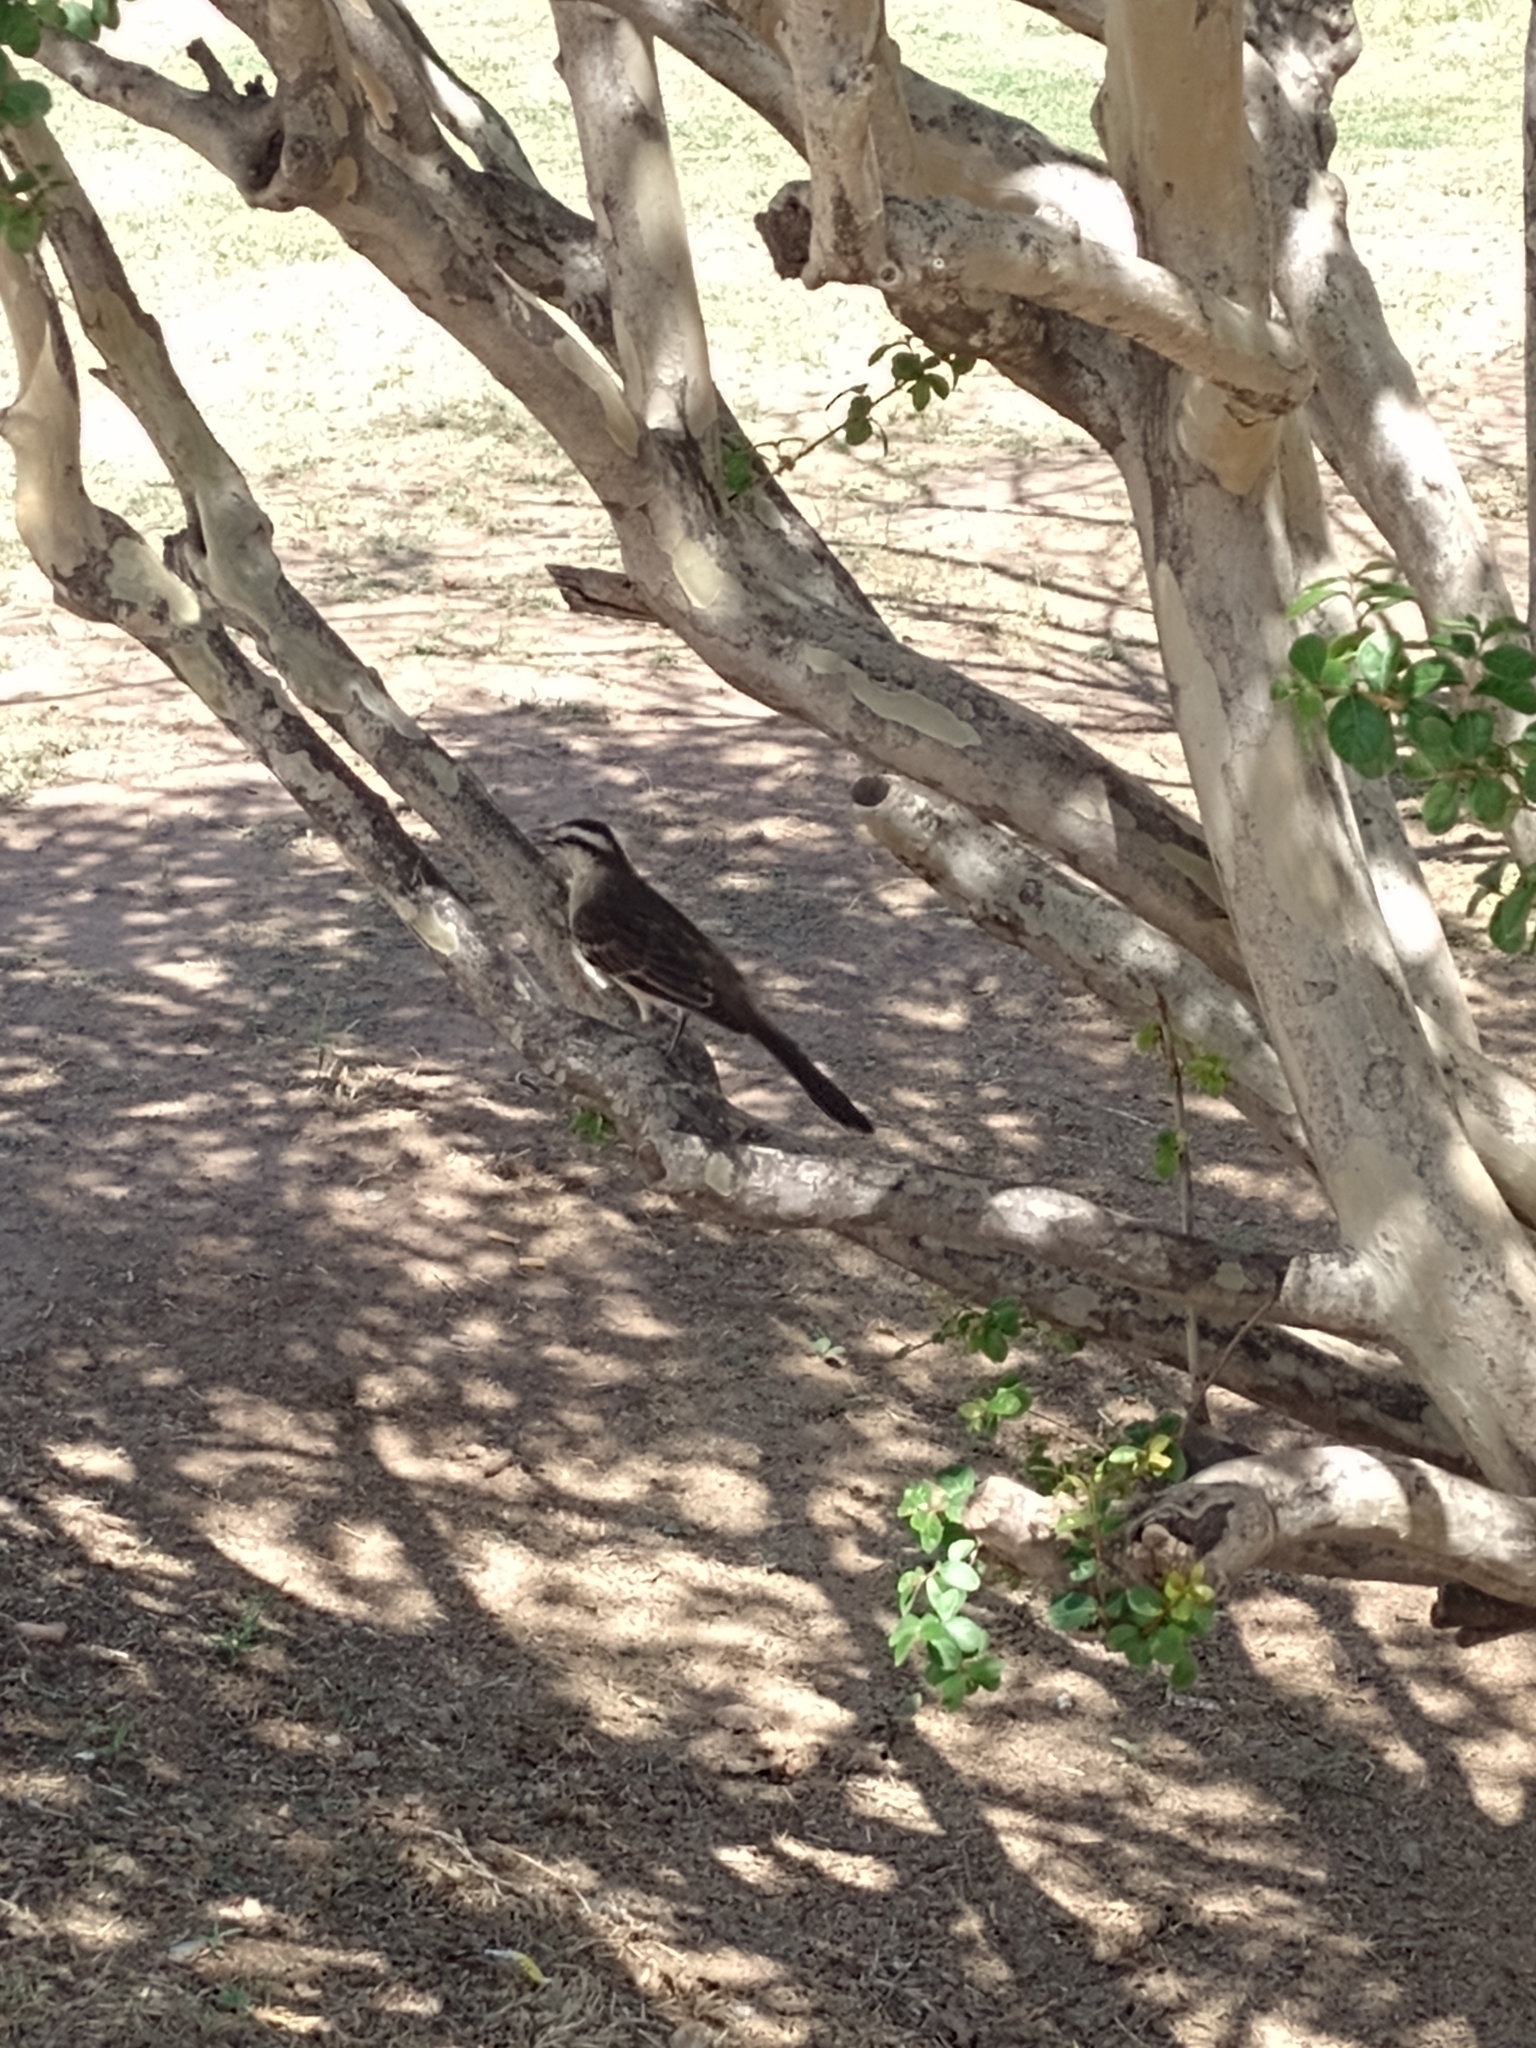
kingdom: Animalia
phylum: Chordata
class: Aves
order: Passeriformes
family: Mimidae
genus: Mimus
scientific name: Mimus saturninus
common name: Chalk-browed mockingbird
